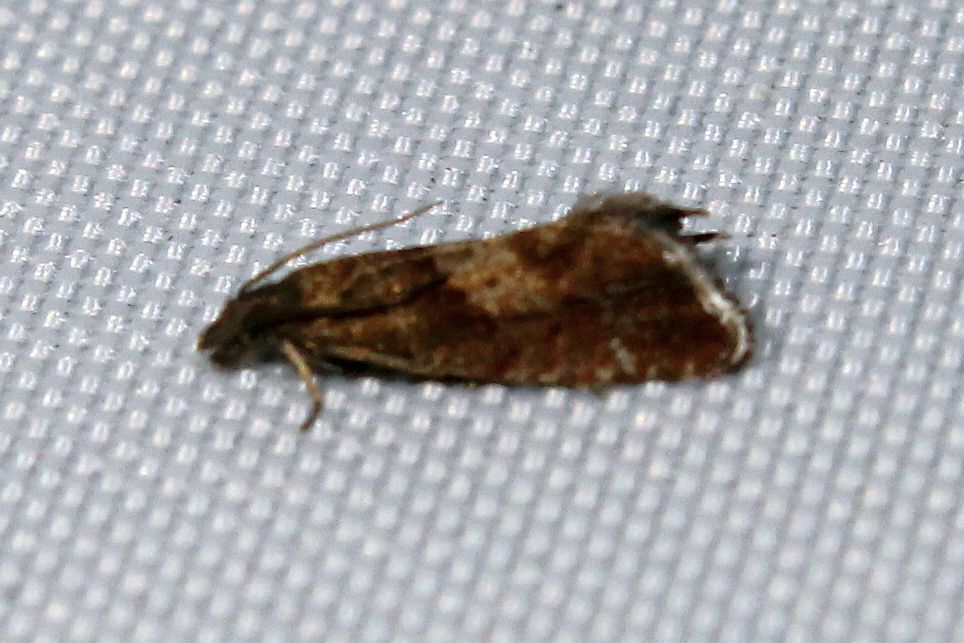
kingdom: Animalia
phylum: Arthropoda
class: Insecta
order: Lepidoptera
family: Tortricidae
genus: Dichrorampha
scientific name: Dichrorampha acuminatana
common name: Sharp-winged drill
